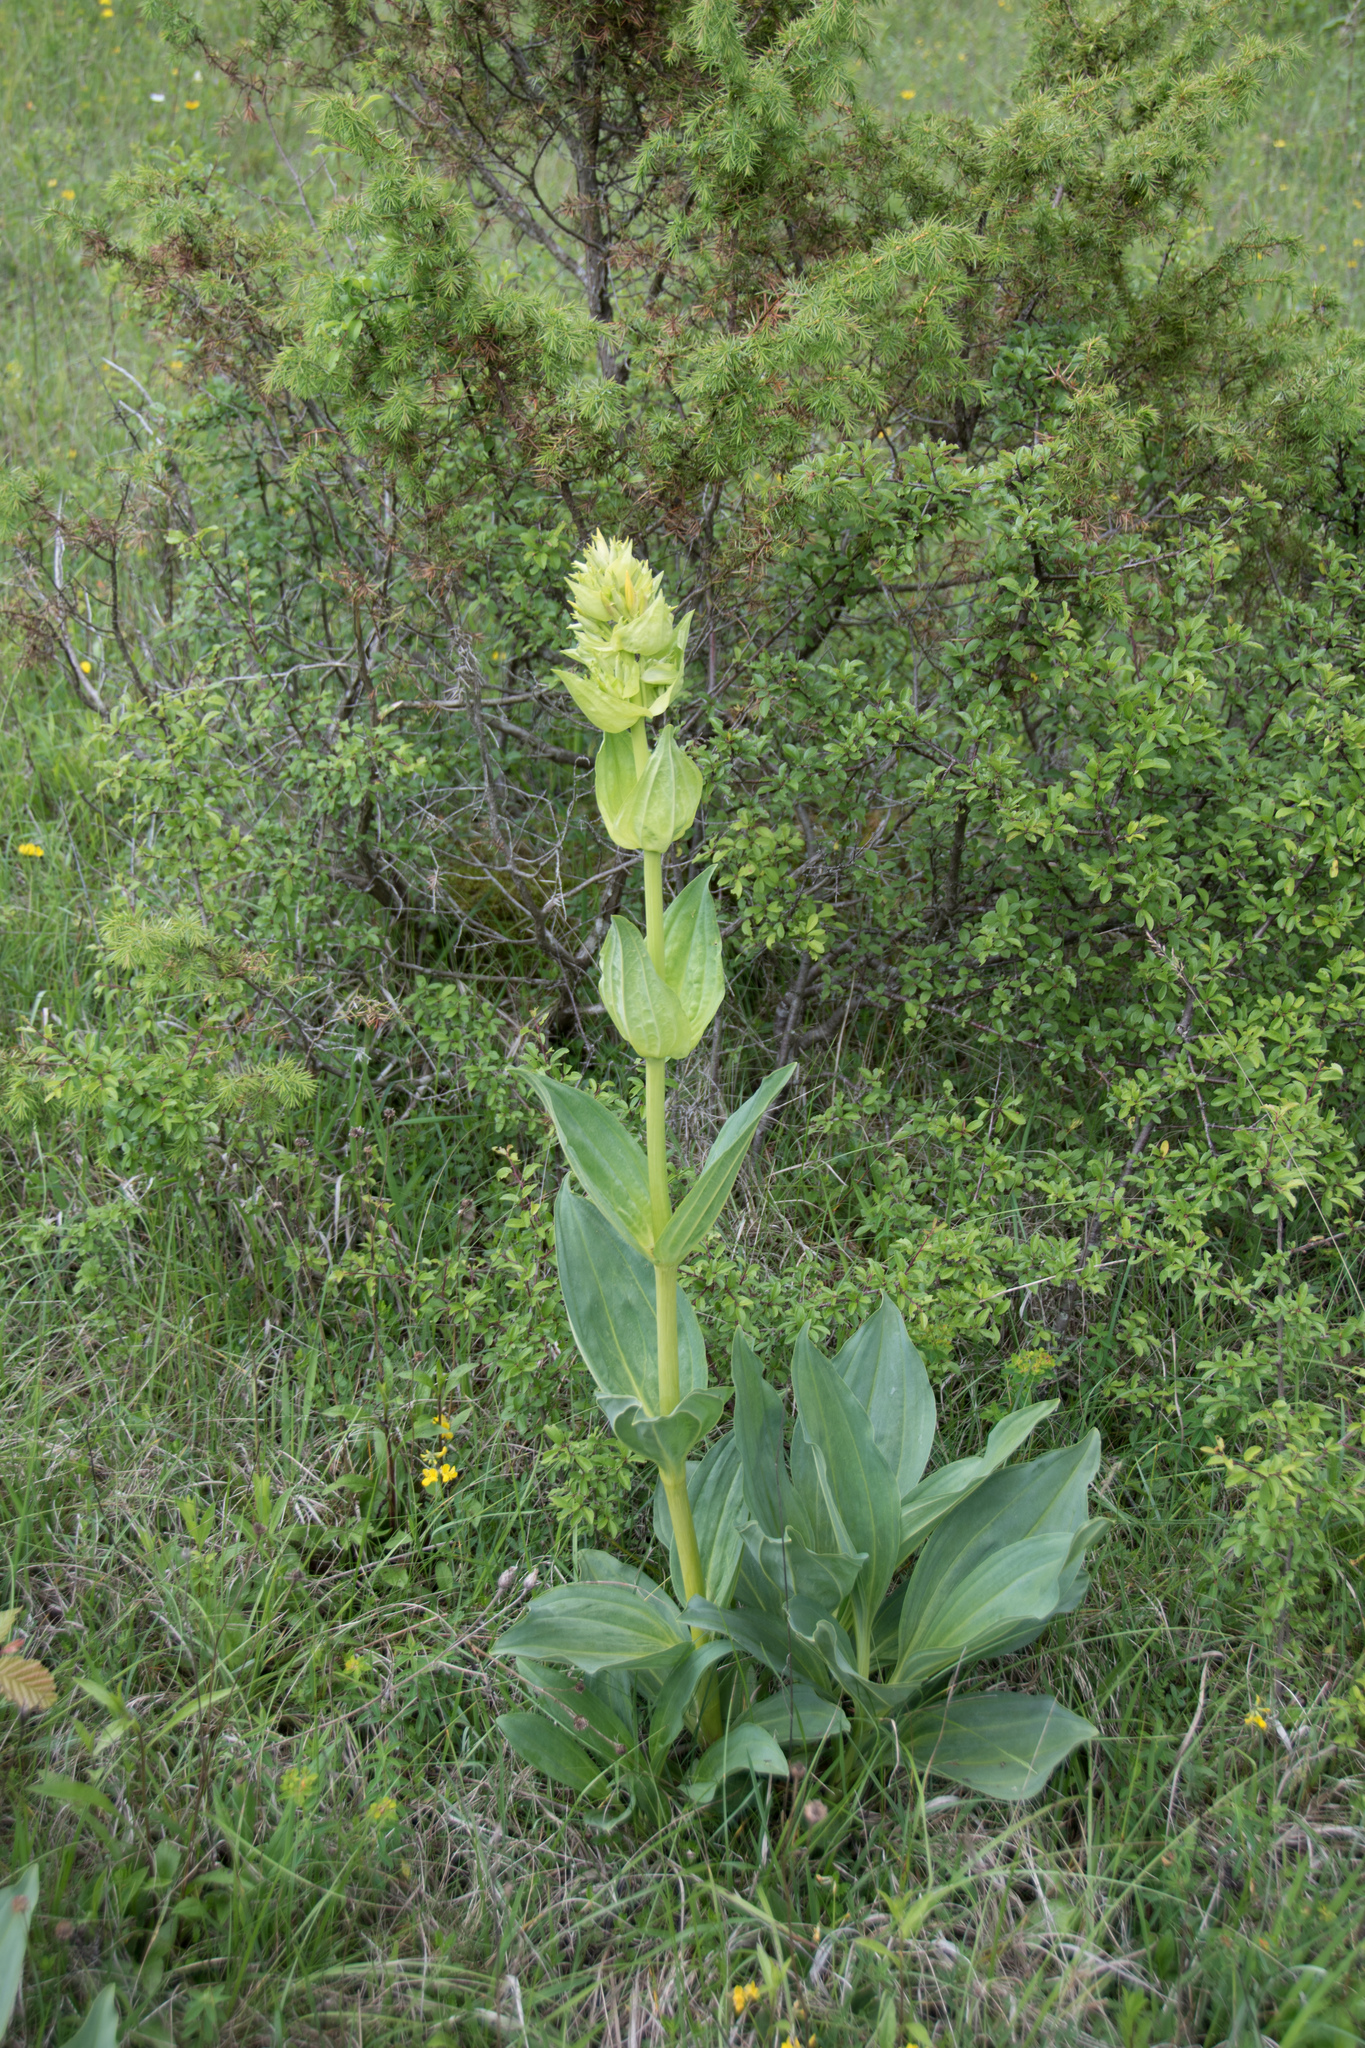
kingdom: Plantae
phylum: Tracheophyta
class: Magnoliopsida
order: Gentianales
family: Gentianaceae
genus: Gentiana
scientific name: Gentiana lutea
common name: Great yellow gentian
